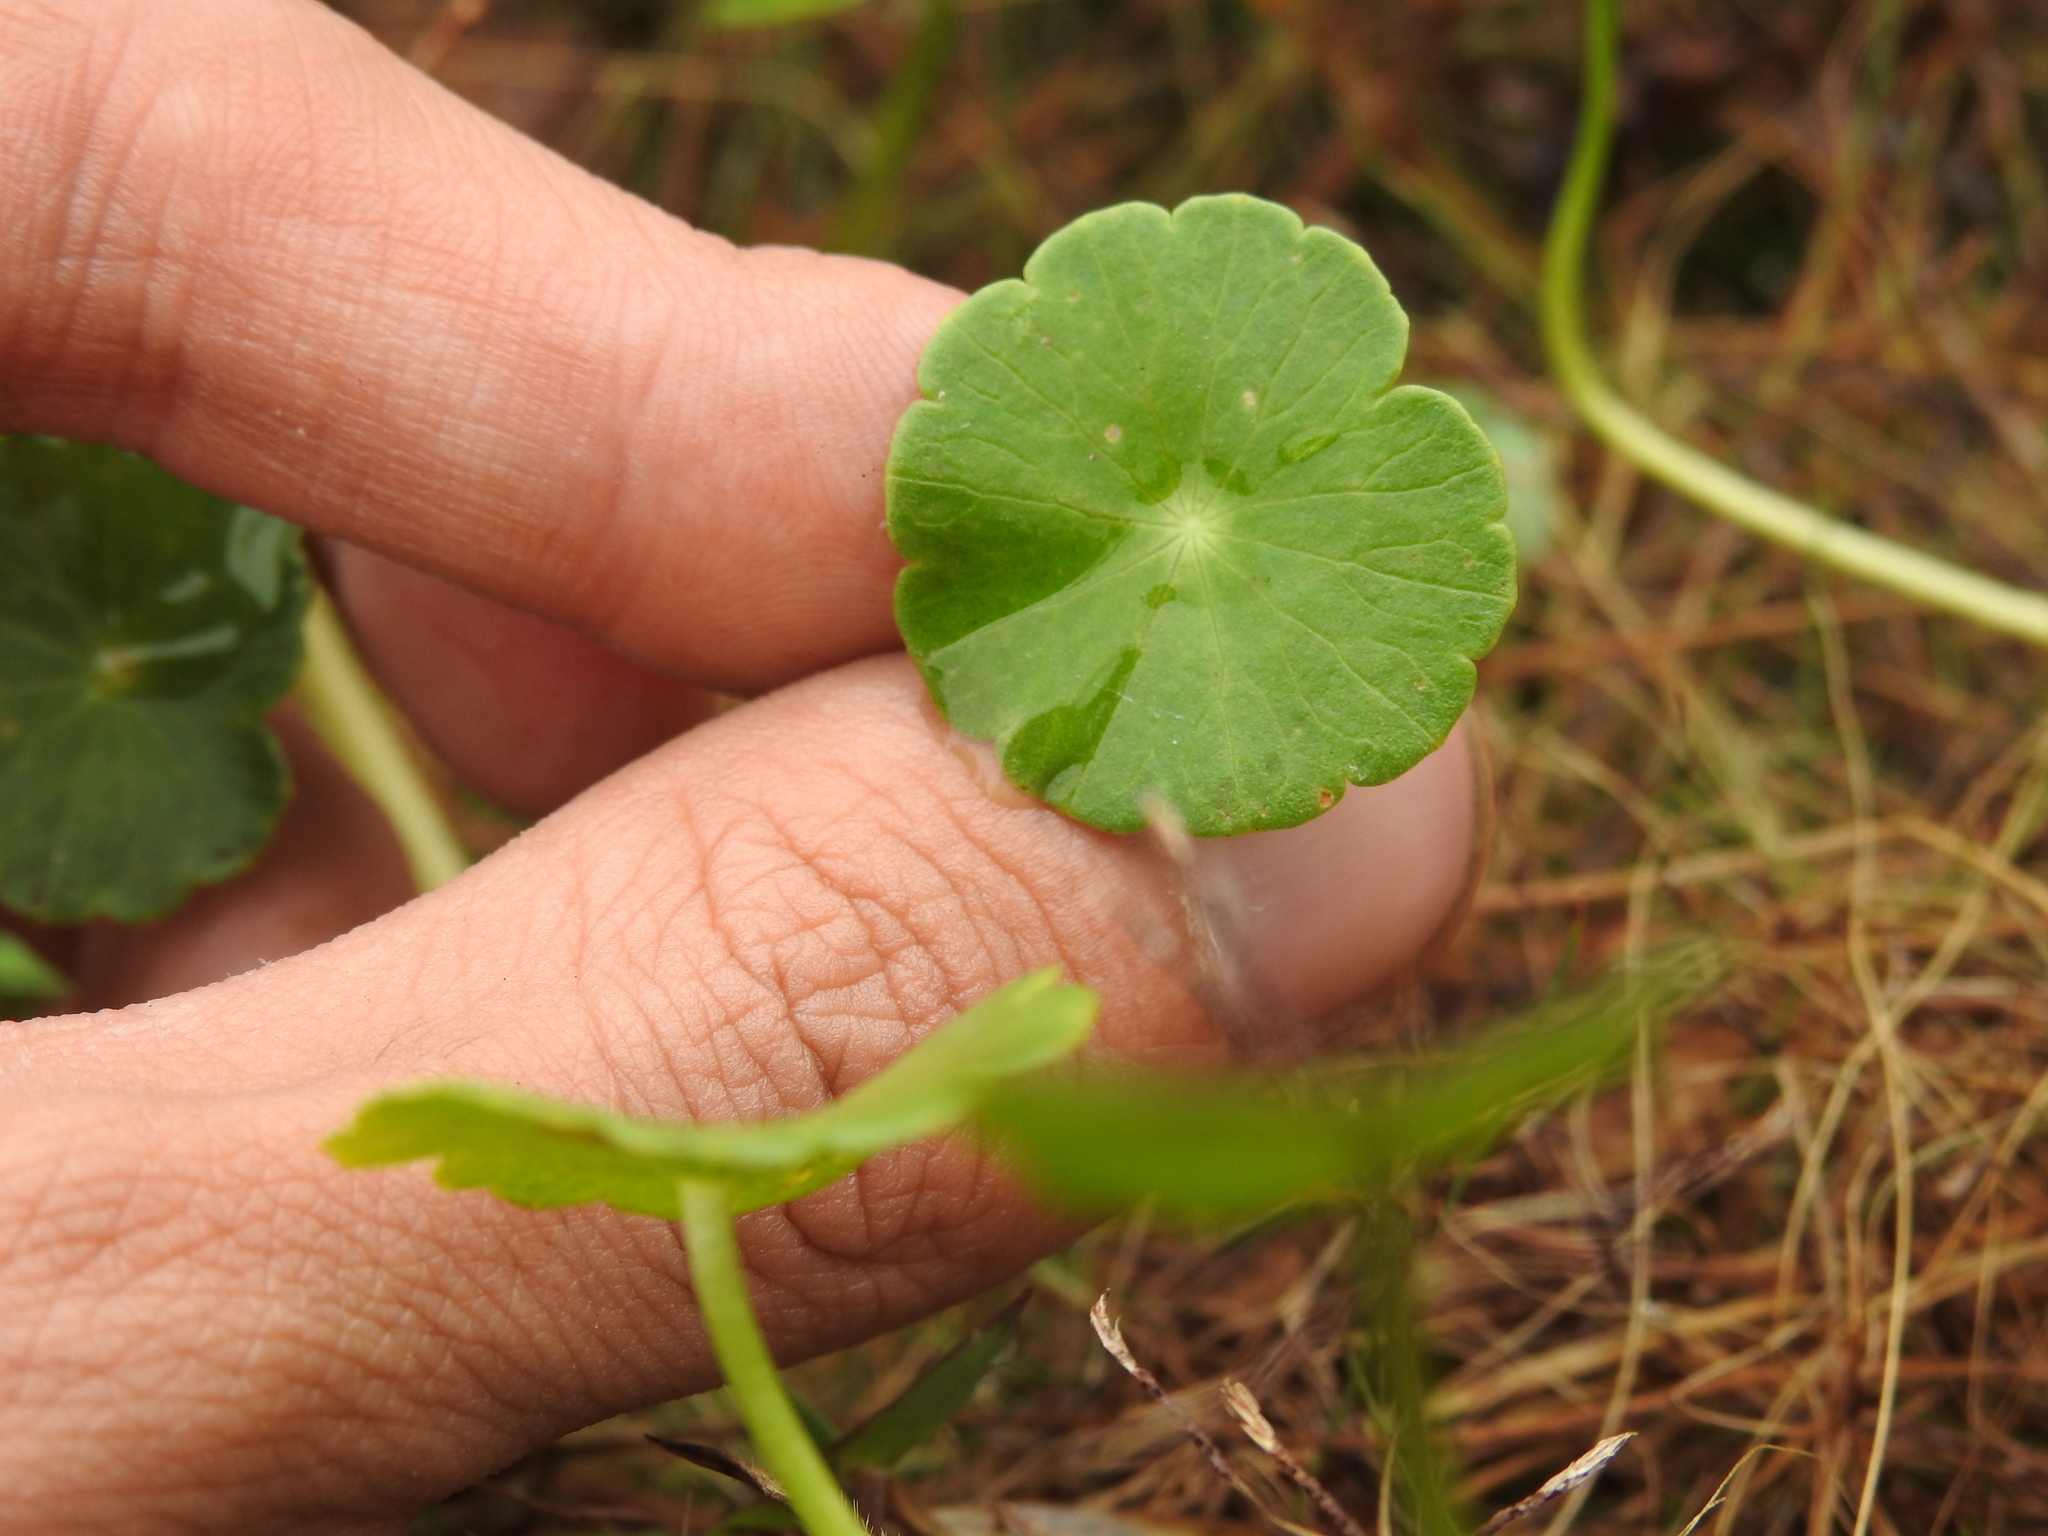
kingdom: Plantae
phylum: Tracheophyta
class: Magnoliopsida
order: Apiales
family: Araliaceae
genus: Hydrocotyle
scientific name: Hydrocotyle umbellata
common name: Water pennywort
